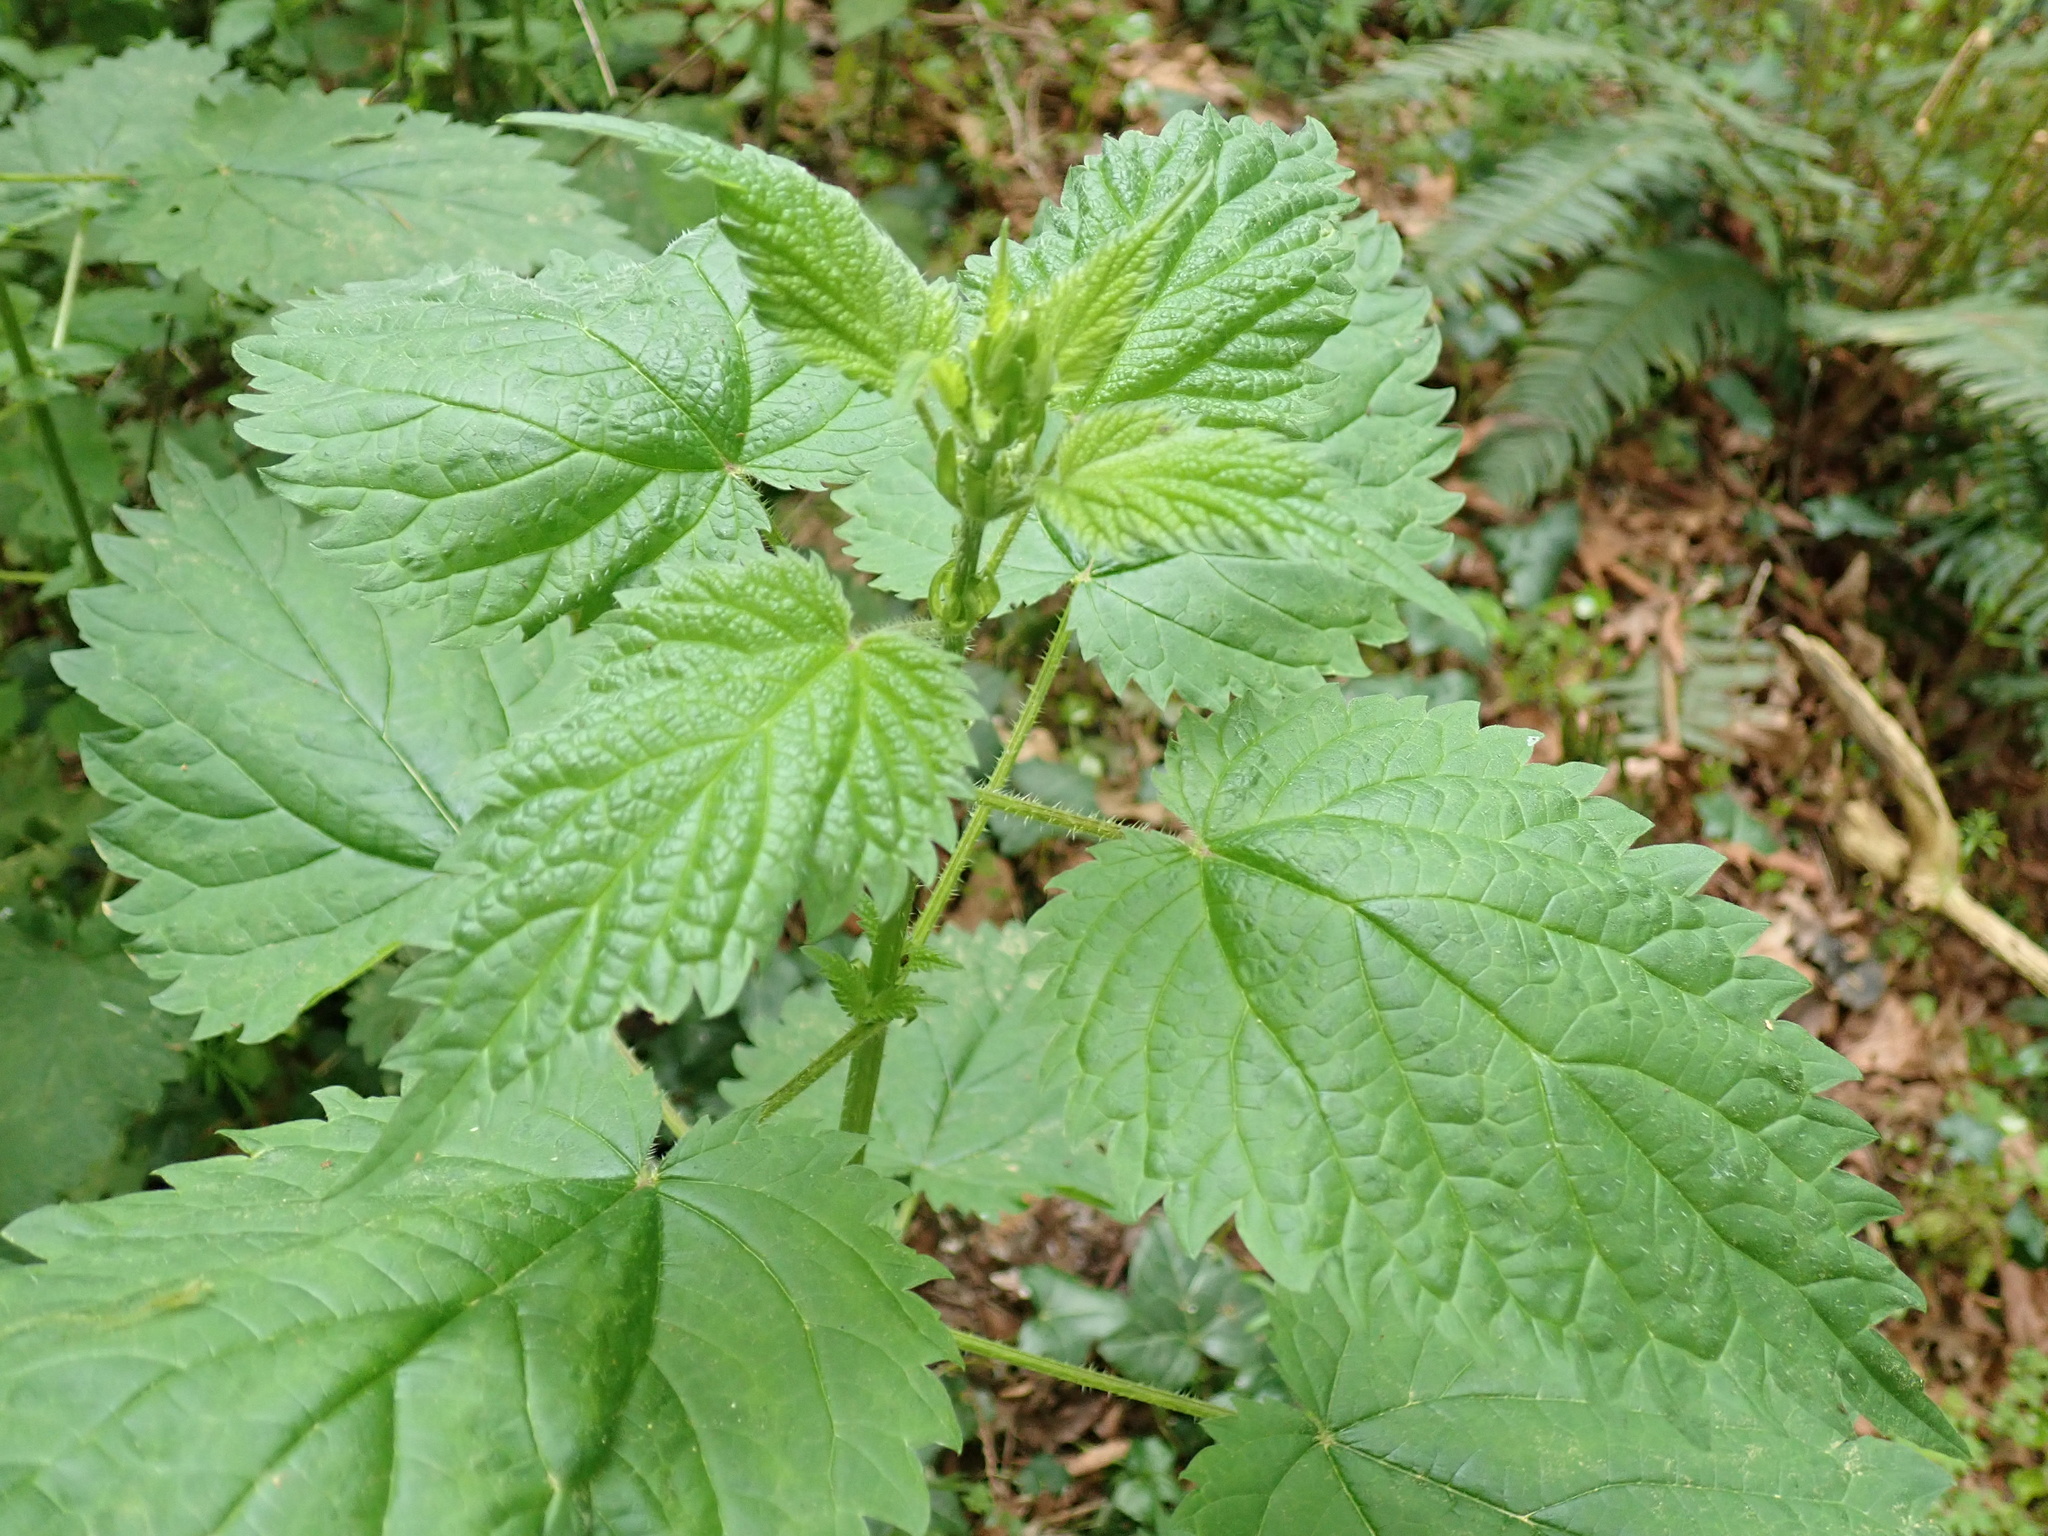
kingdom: Plantae
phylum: Tracheophyta
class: Magnoliopsida
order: Rosales
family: Urticaceae
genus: Urtica
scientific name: Urtica dioica
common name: Common nettle
